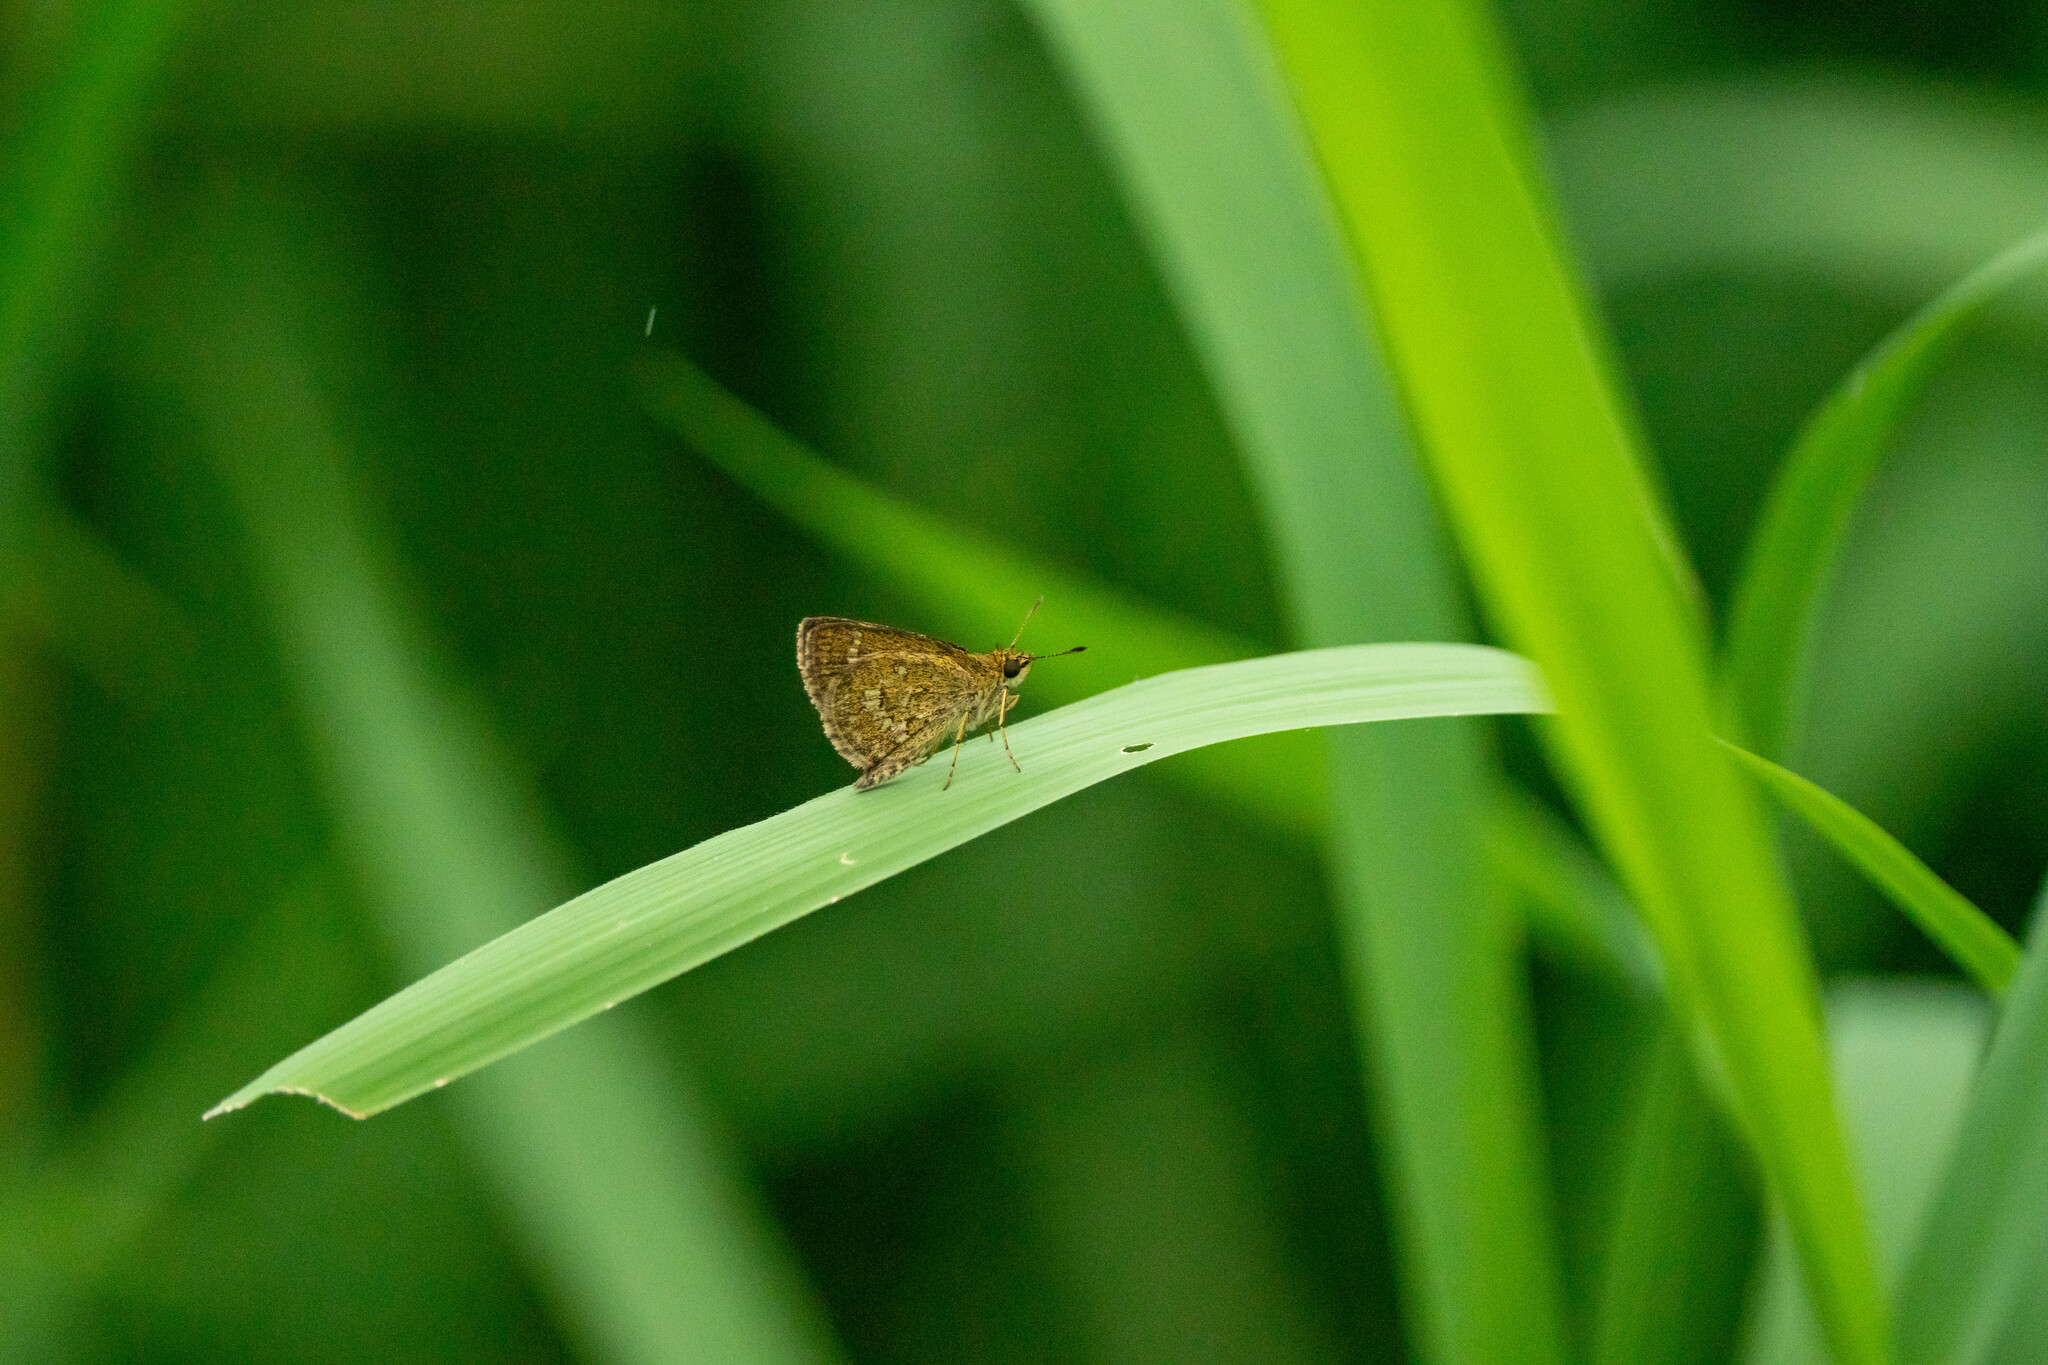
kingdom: Animalia
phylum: Arthropoda
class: Insecta
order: Lepidoptera
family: Hesperiidae
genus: Aeromachus
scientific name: Aeromachus jhora
